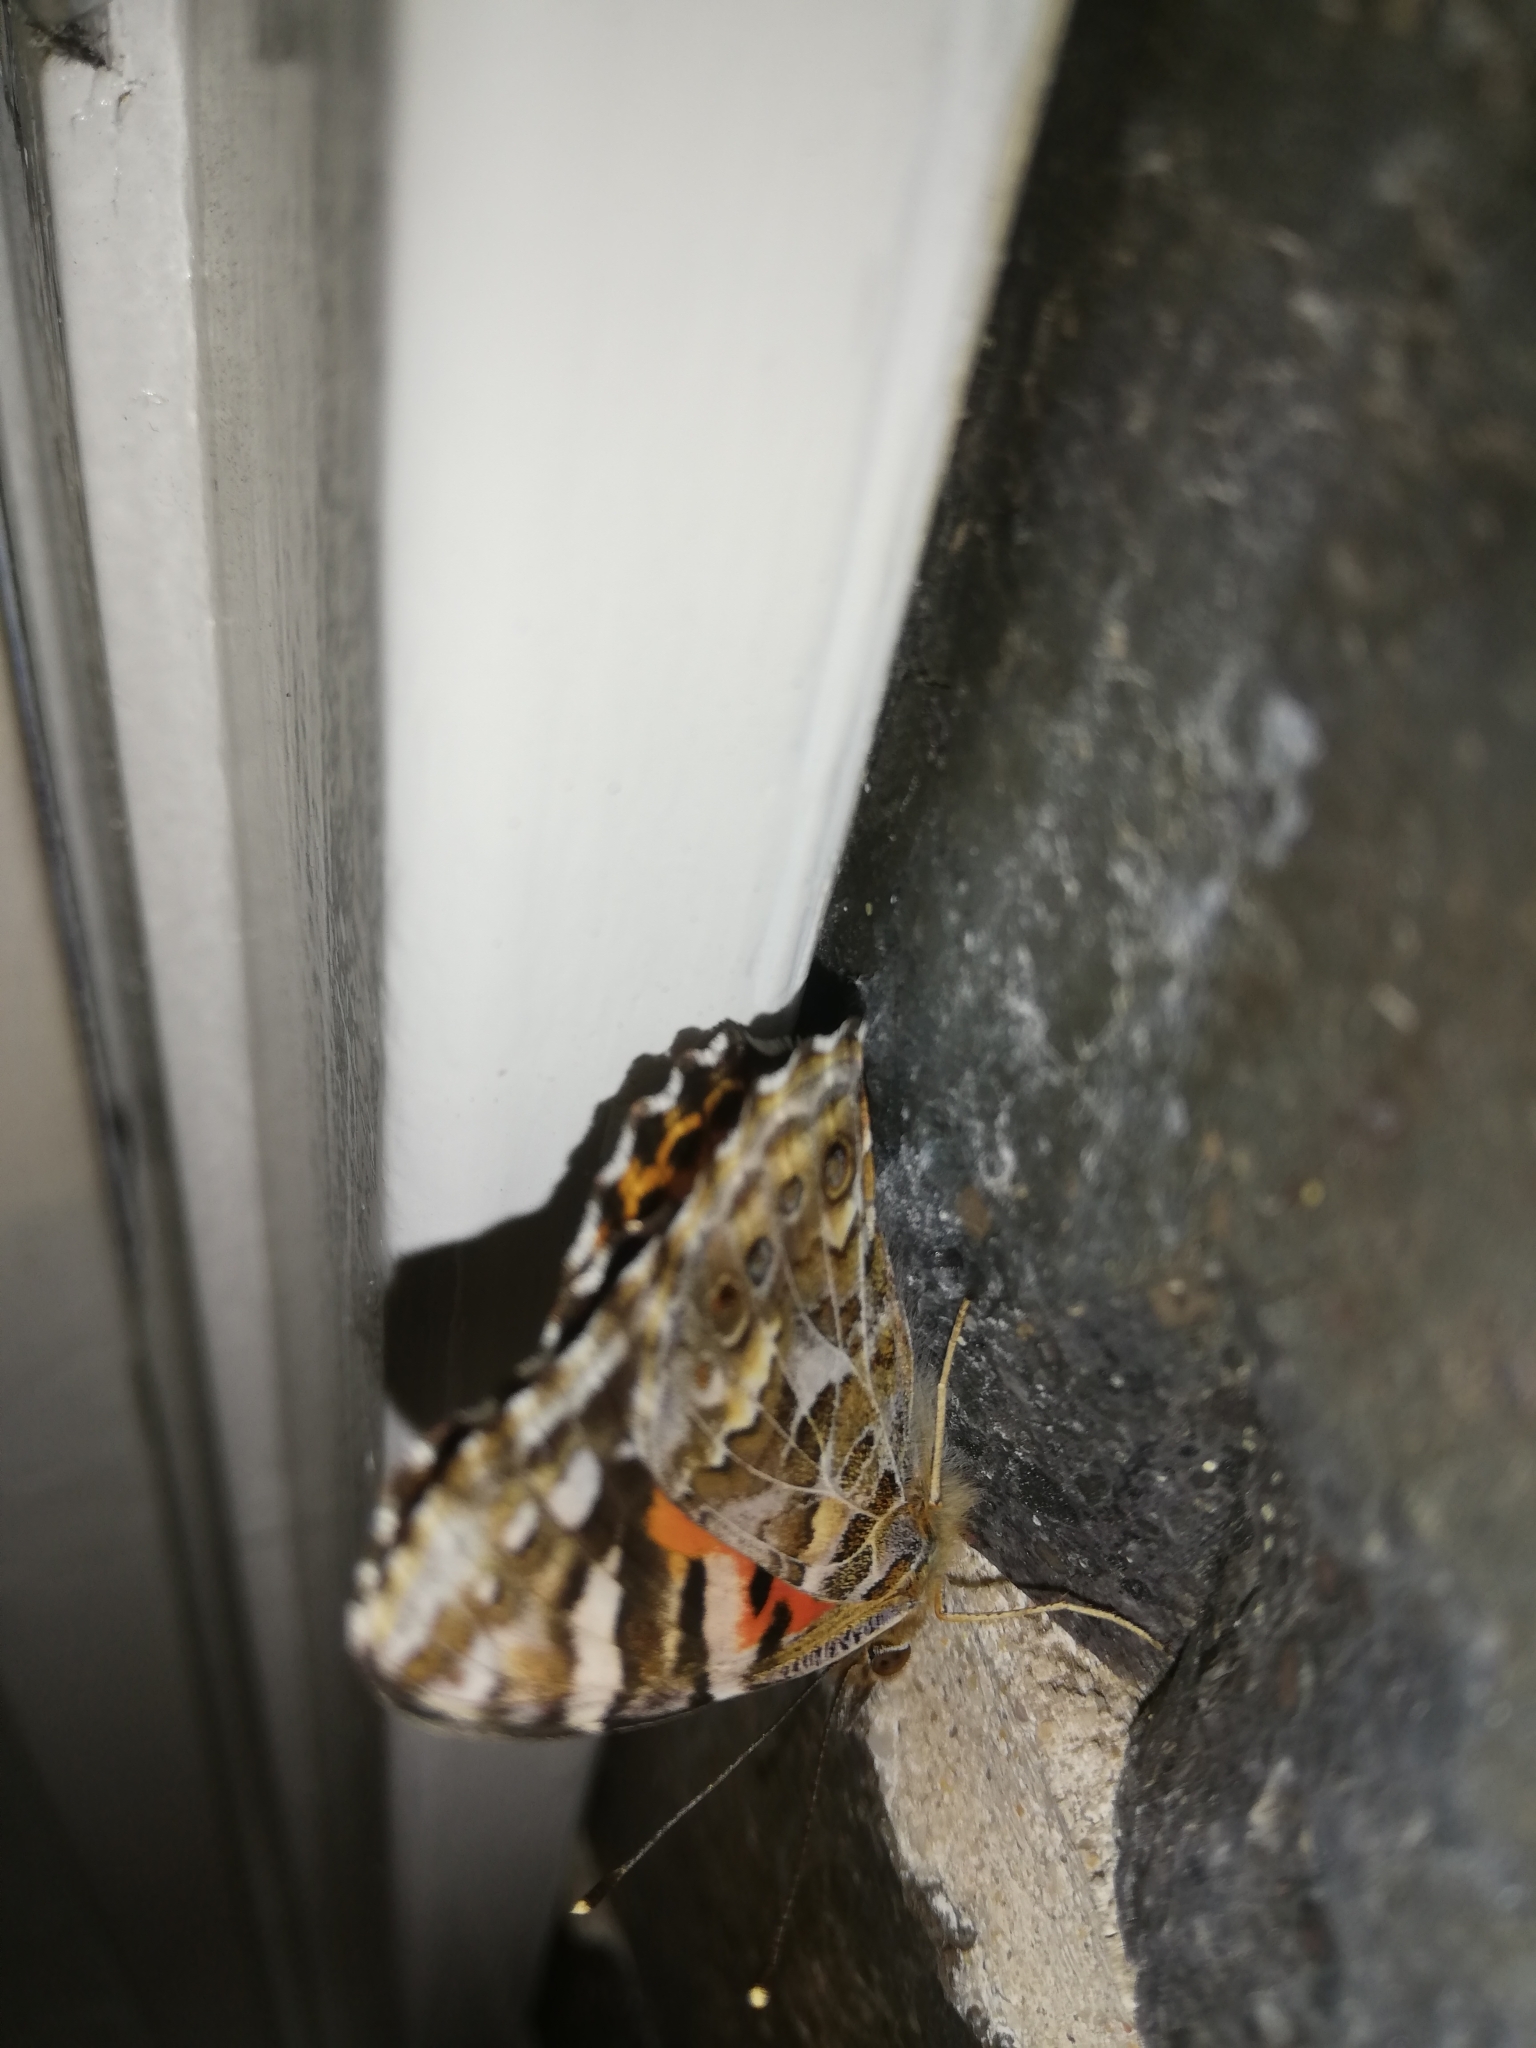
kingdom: Animalia
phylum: Arthropoda
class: Insecta
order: Lepidoptera
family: Nymphalidae
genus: Vanessa
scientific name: Vanessa kershawi
